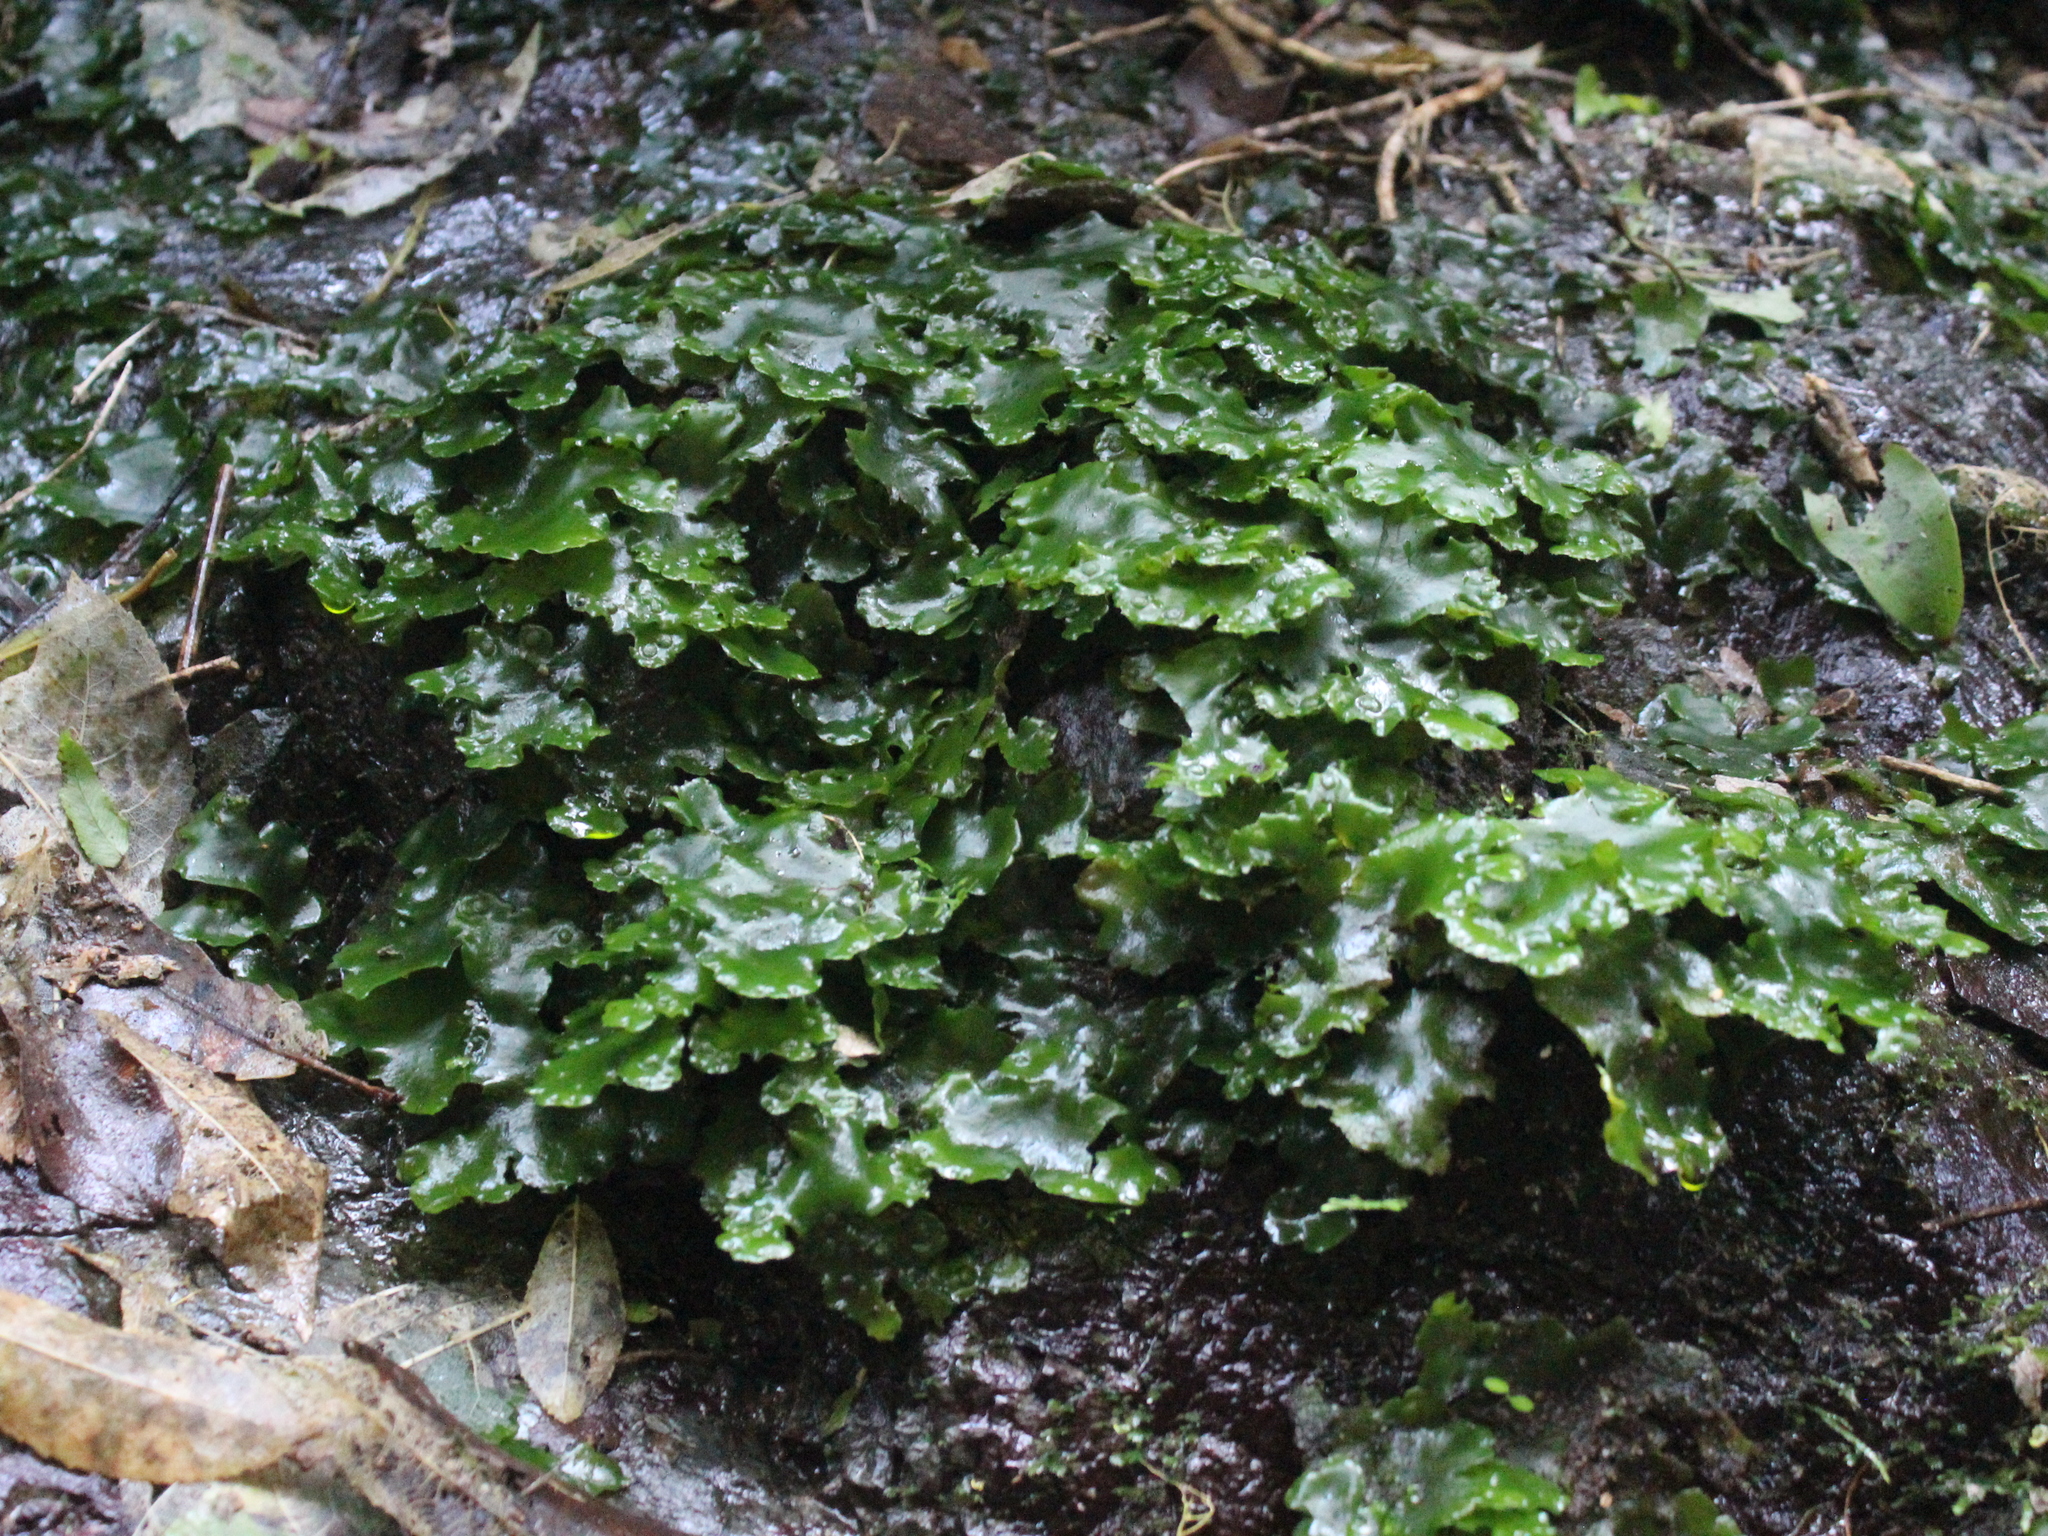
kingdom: Plantae
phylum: Marchantiophyta
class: Marchantiopsida
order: Marchantiales
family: Monocleaceae
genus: Monoclea
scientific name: Monoclea forsteri
